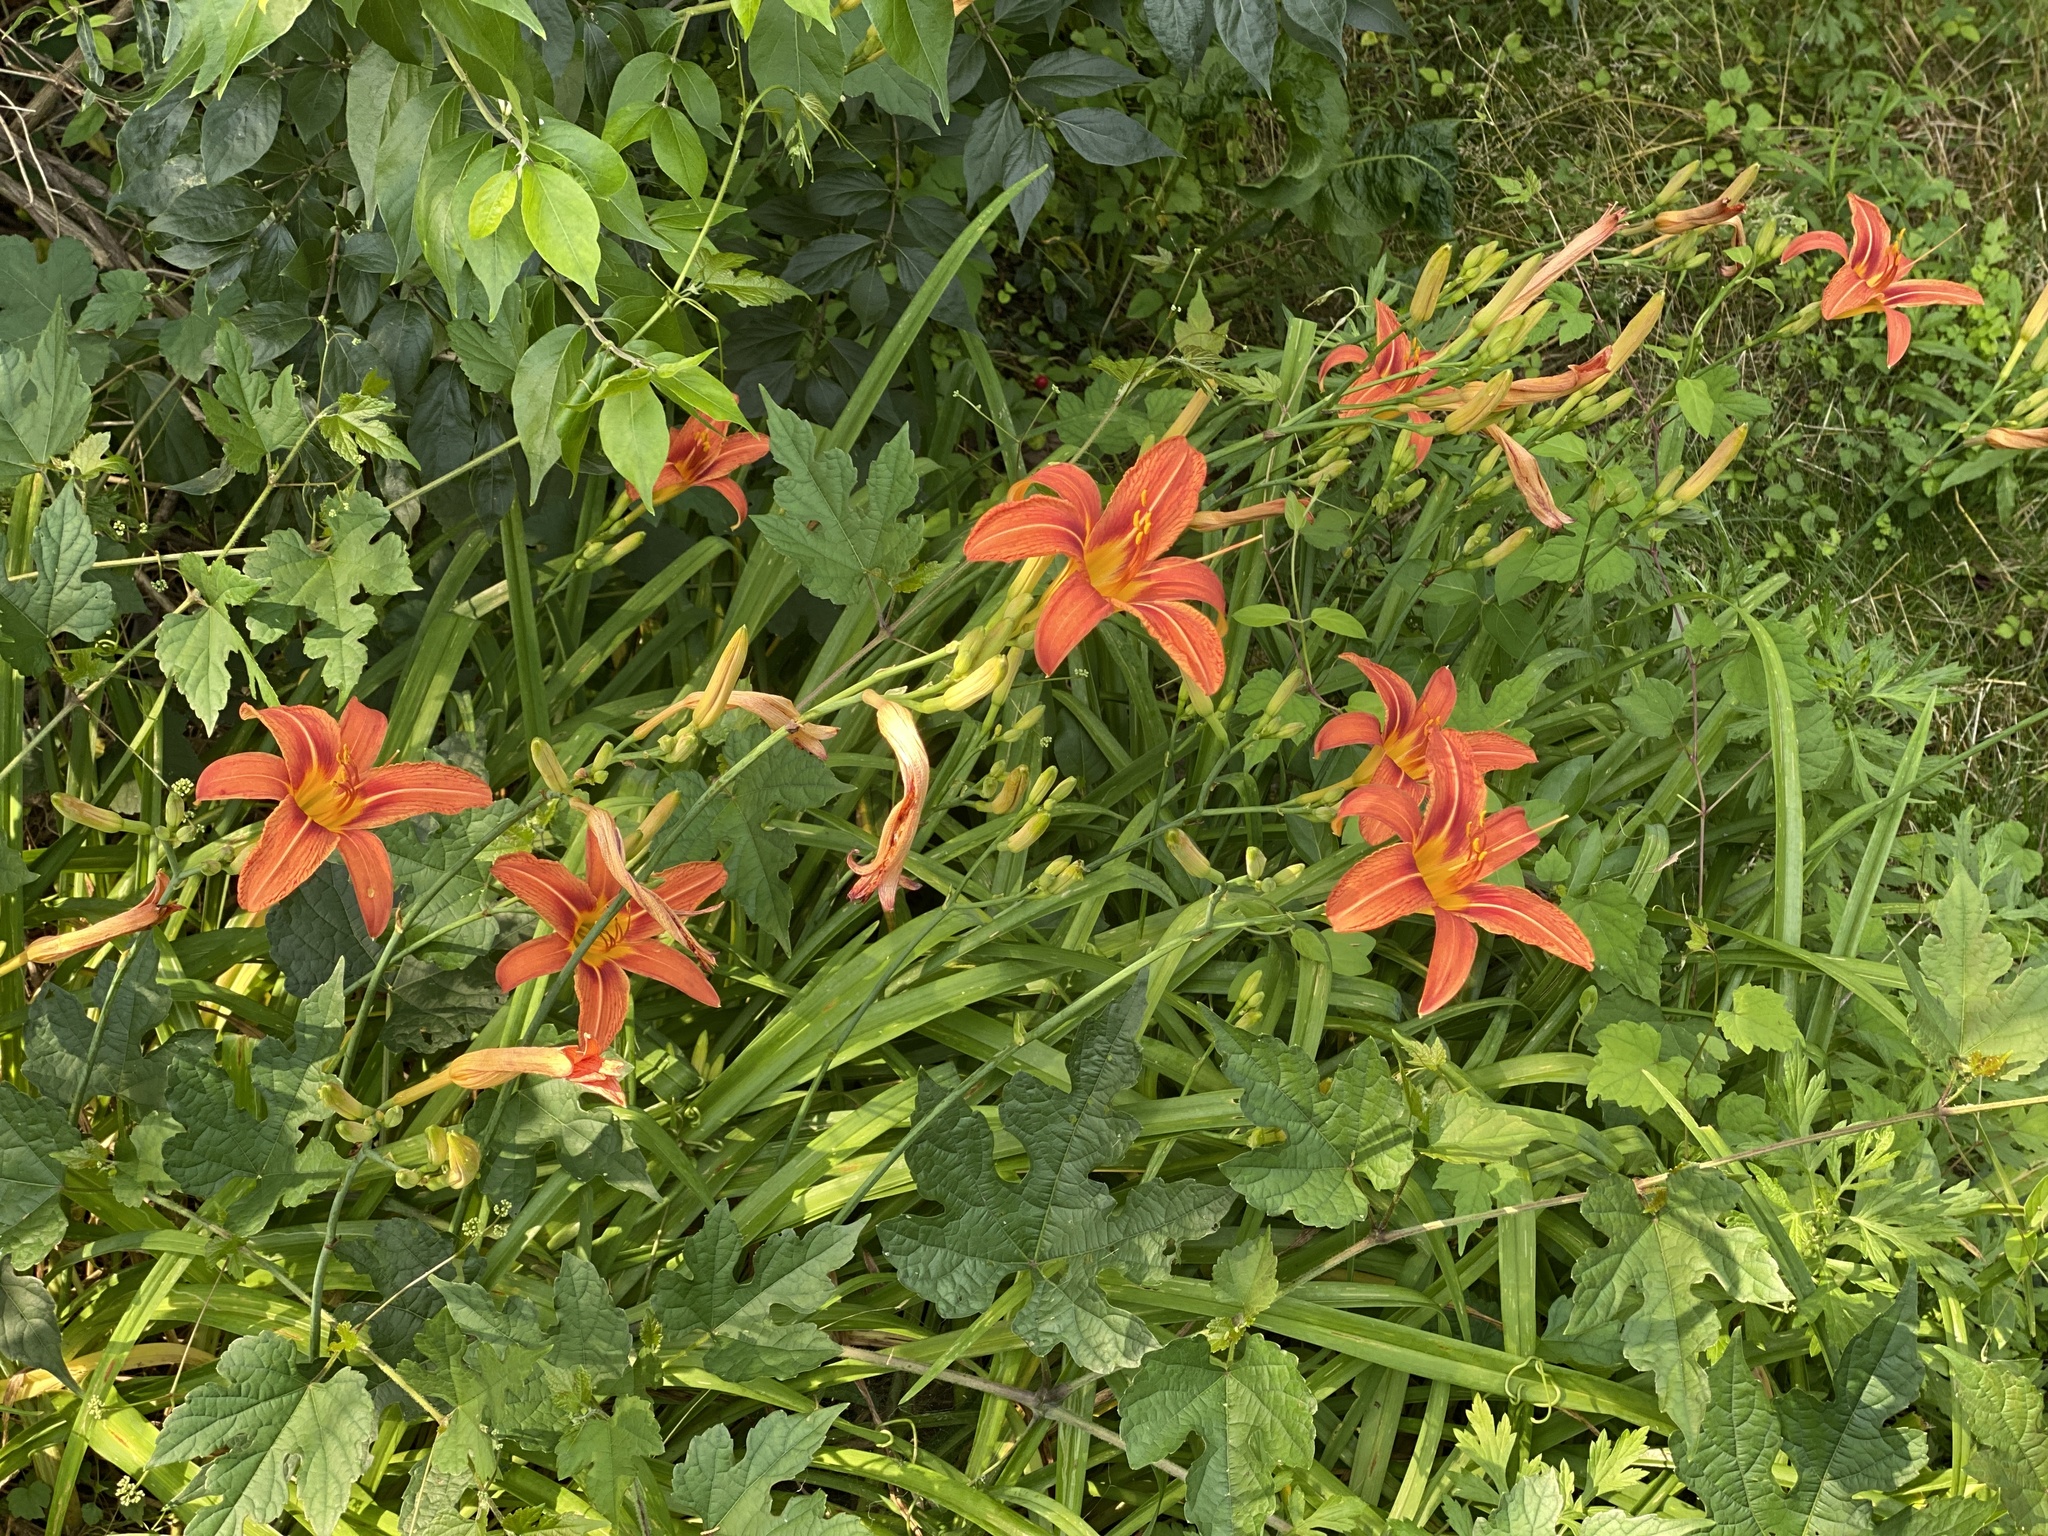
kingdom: Plantae
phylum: Tracheophyta
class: Liliopsida
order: Asparagales
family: Asphodelaceae
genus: Hemerocallis
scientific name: Hemerocallis fulva
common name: Orange day-lily
